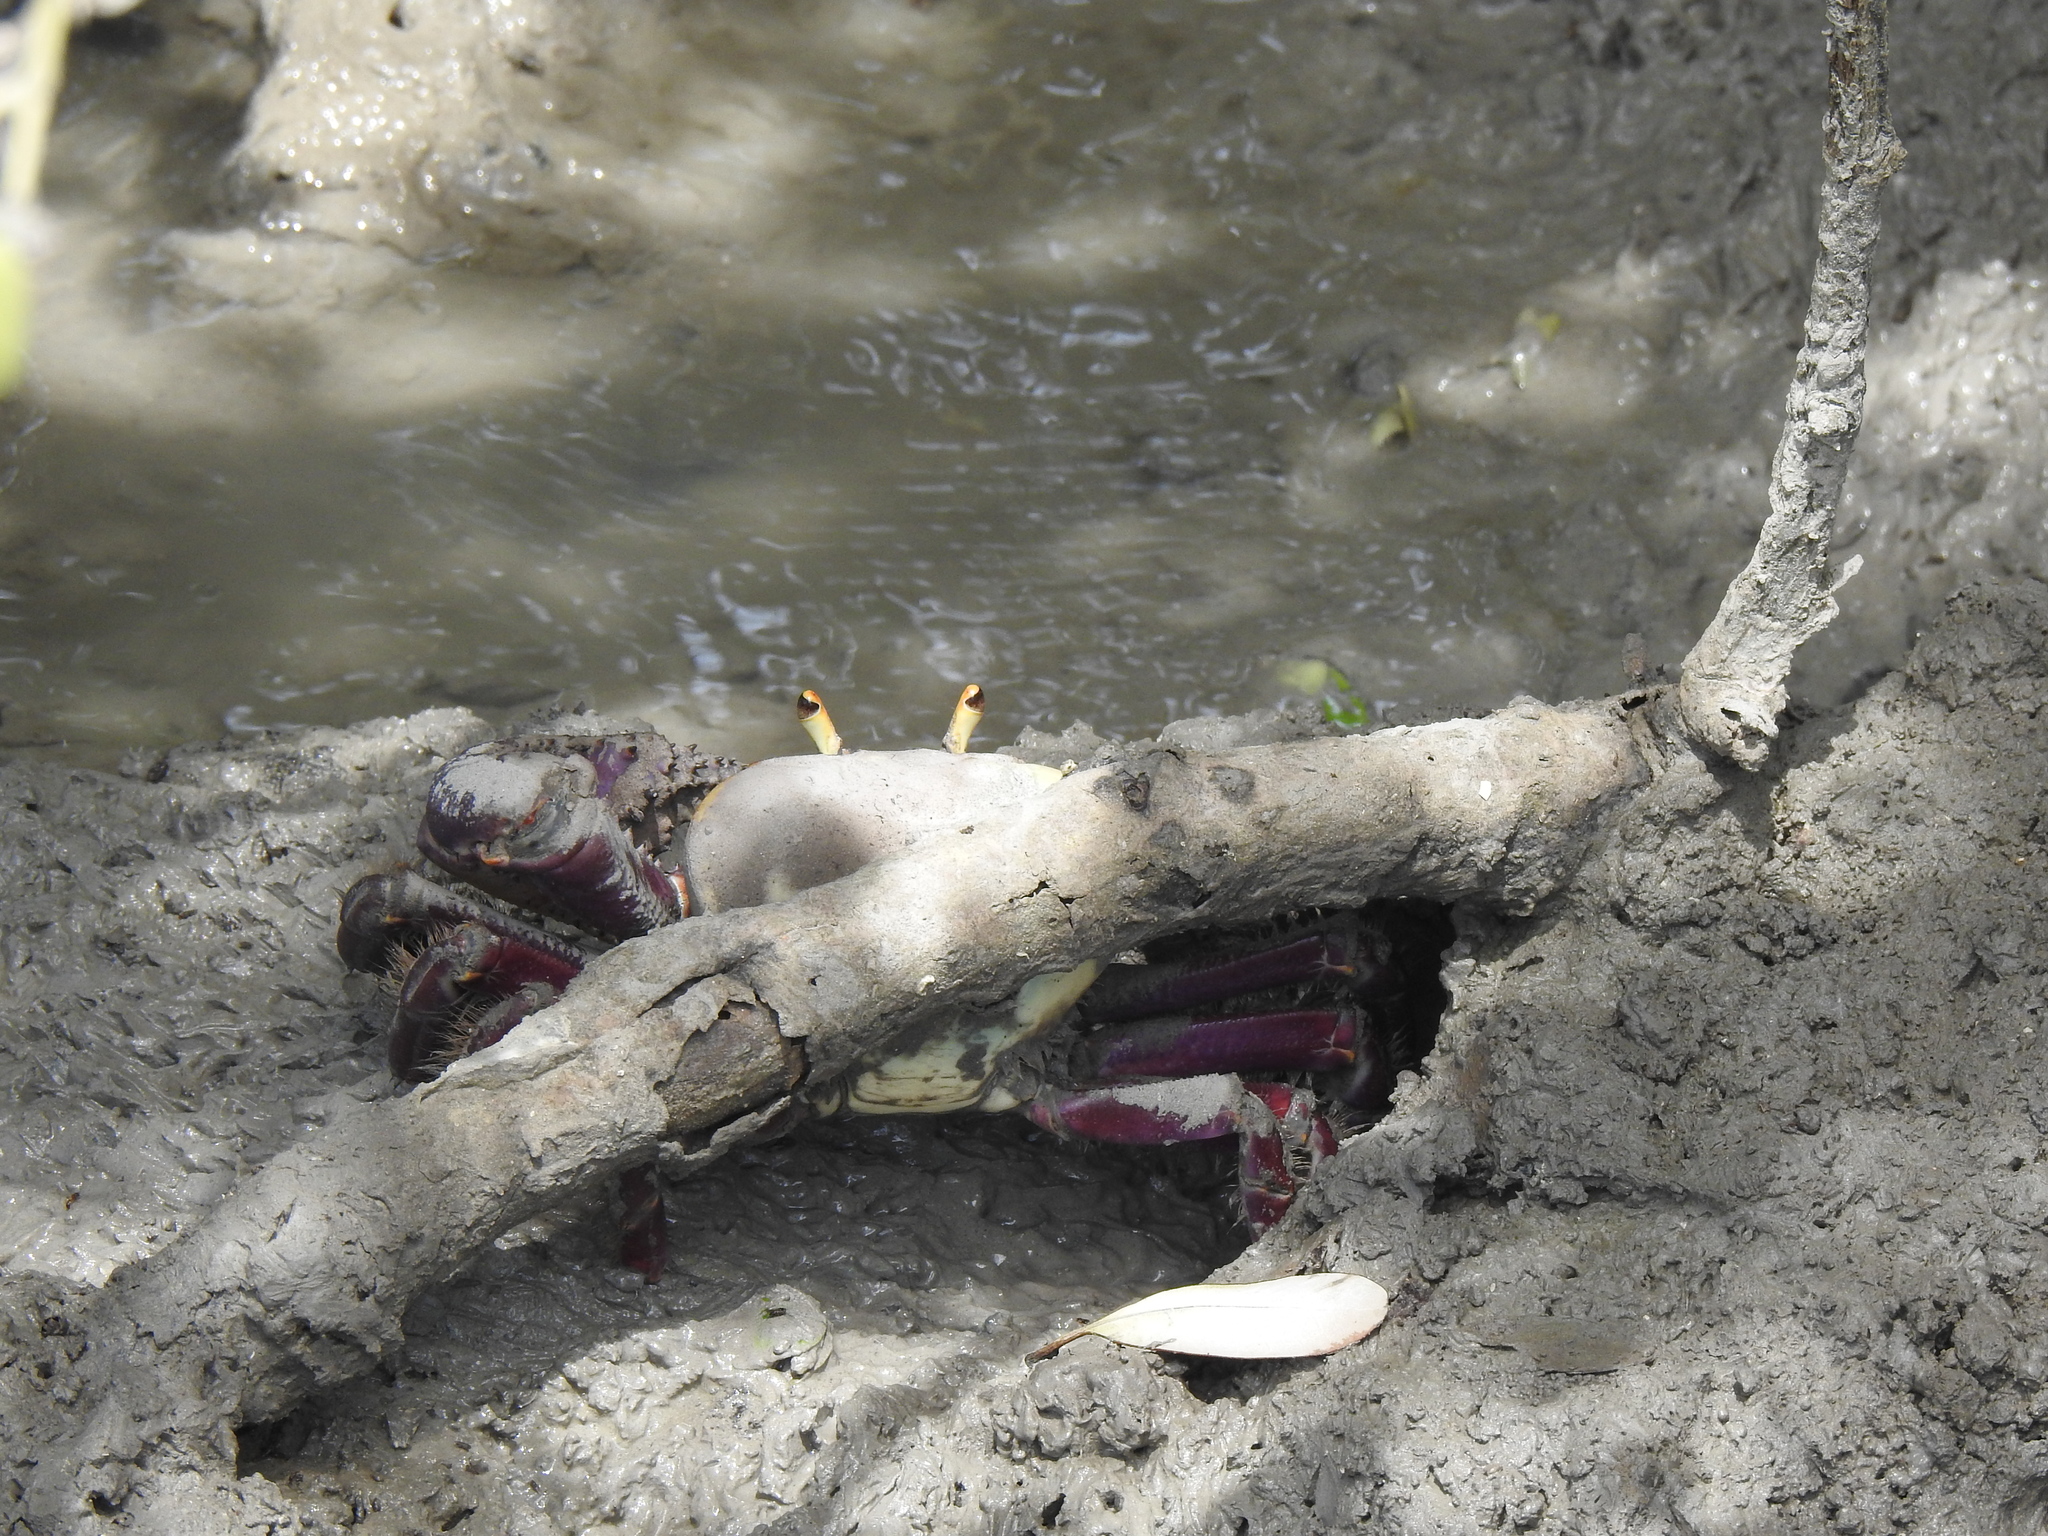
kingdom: Animalia
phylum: Arthropoda
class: Malacostraca
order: Decapoda
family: Ocypodidae
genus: Ucides
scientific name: Ucides cordatus
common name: Swamp ghost crab
